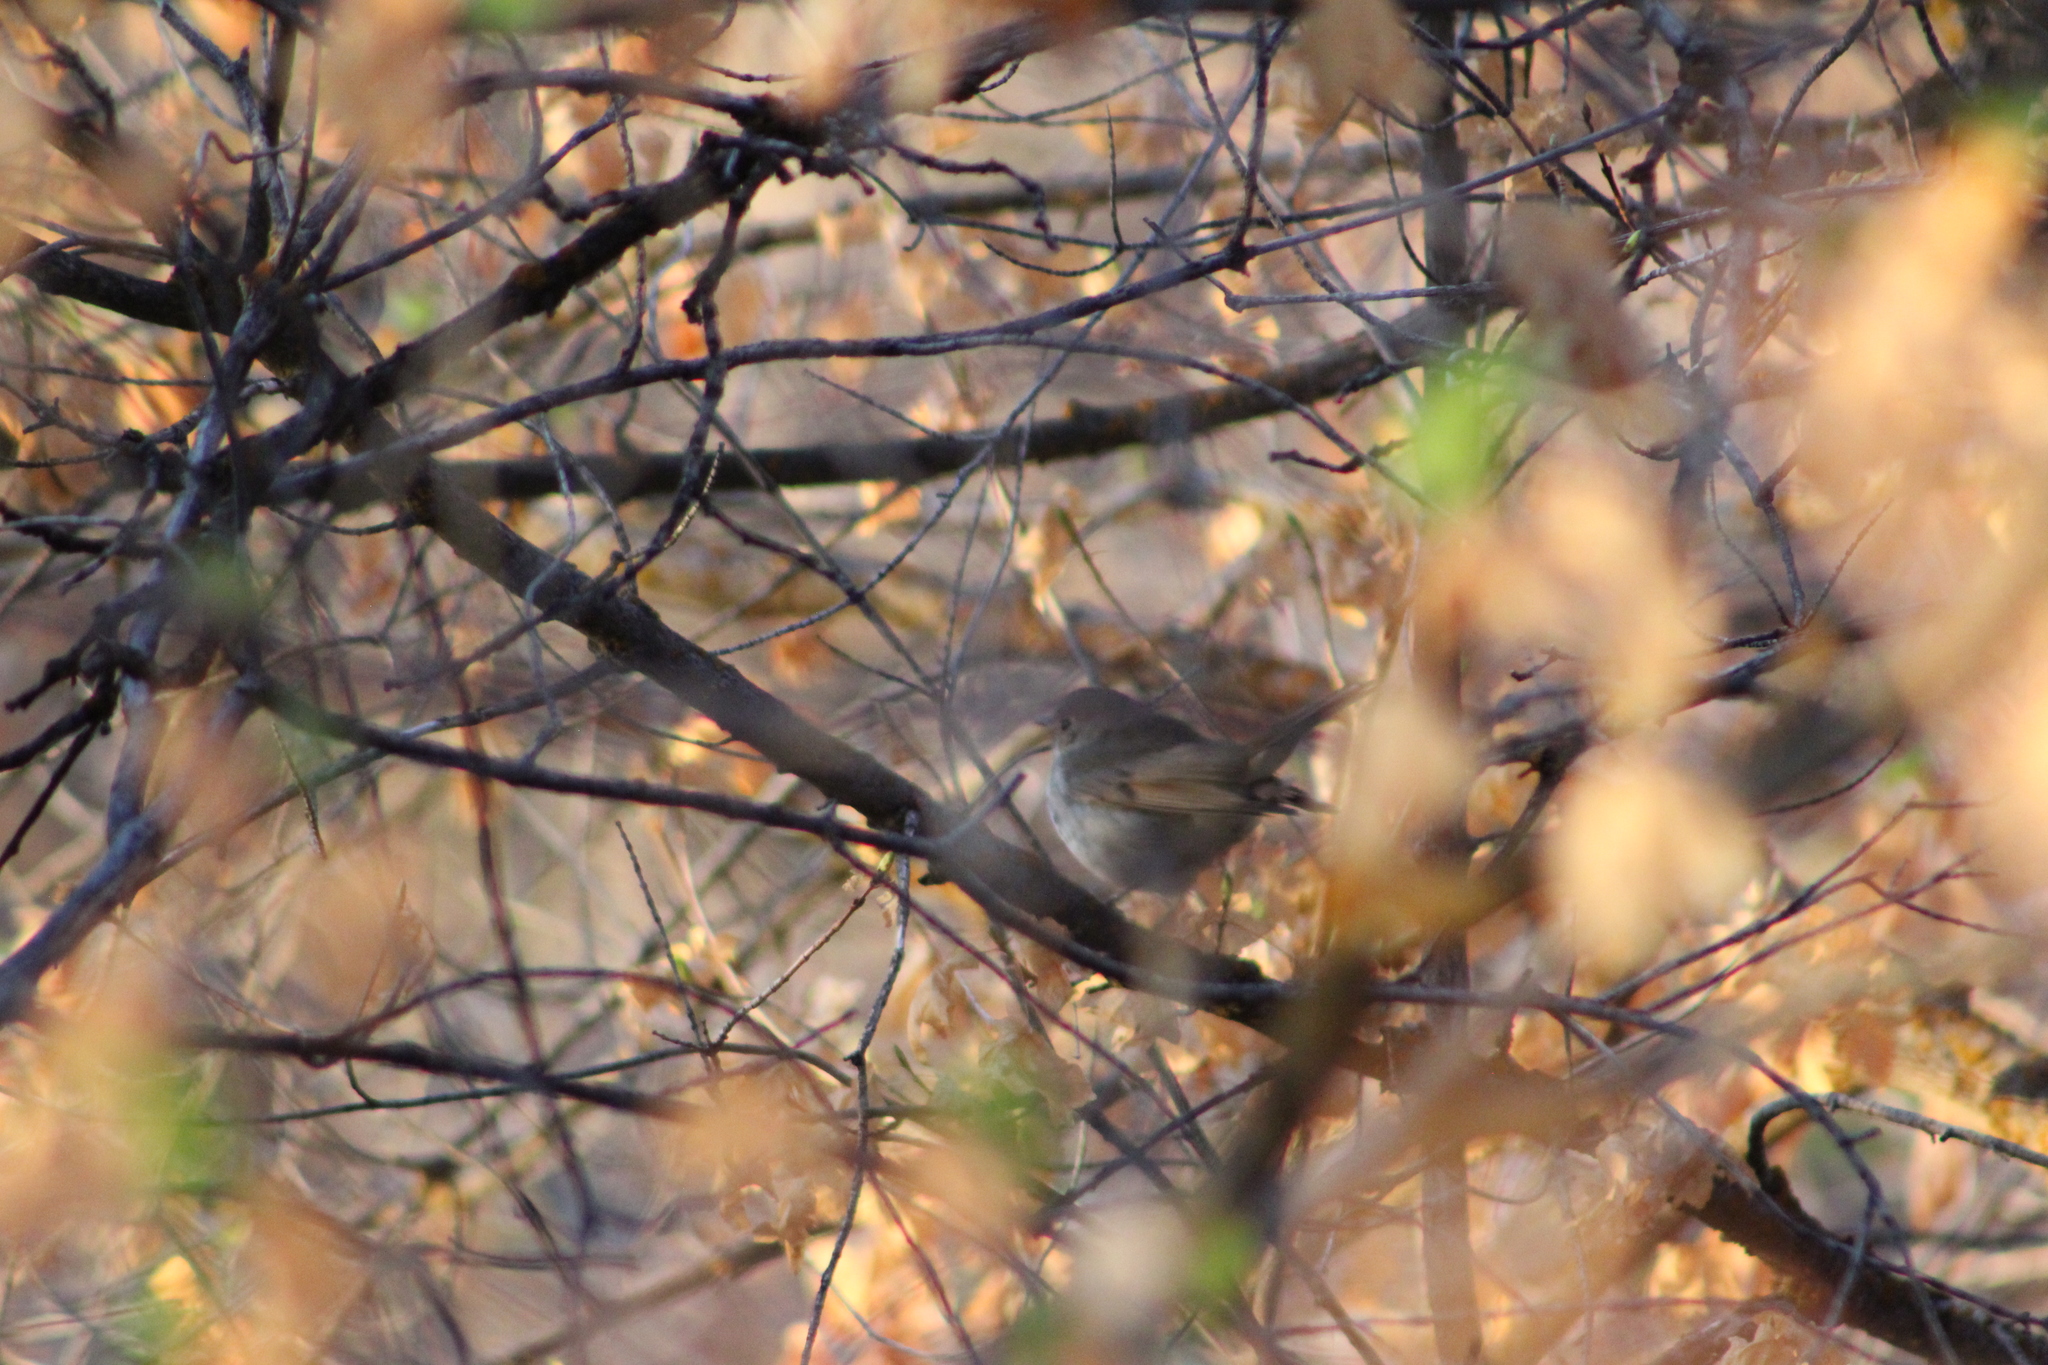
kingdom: Animalia
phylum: Chordata
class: Aves
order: Passeriformes
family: Turdidae
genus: Catharus
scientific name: Catharus guttatus
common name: Hermit thrush
